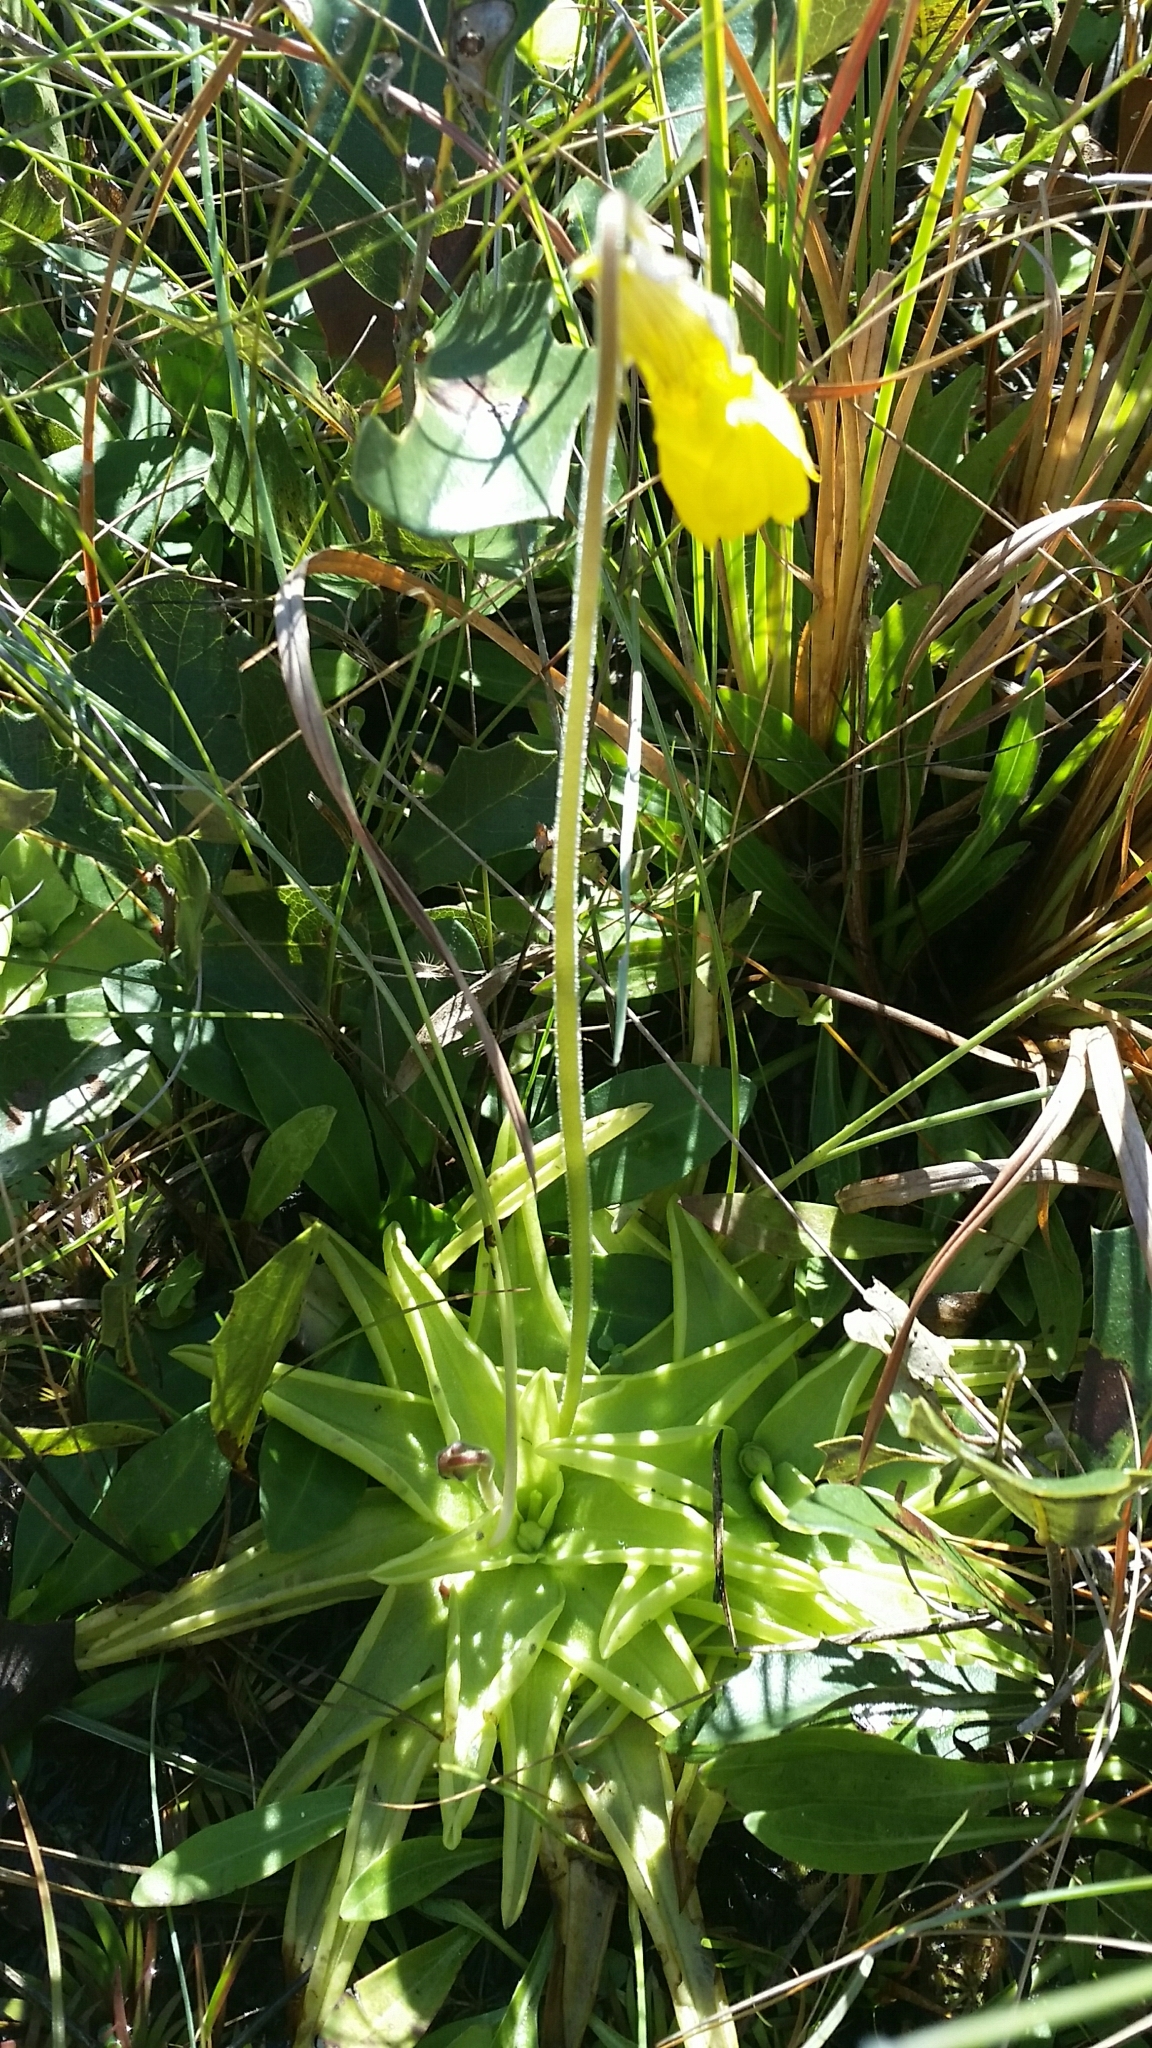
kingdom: Plantae
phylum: Tracheophyta
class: Magnoliopsida
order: Lamiales
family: Lentibulariaceae
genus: Pinguicula
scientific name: Pinguicula lutea
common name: Yellow butterwort
